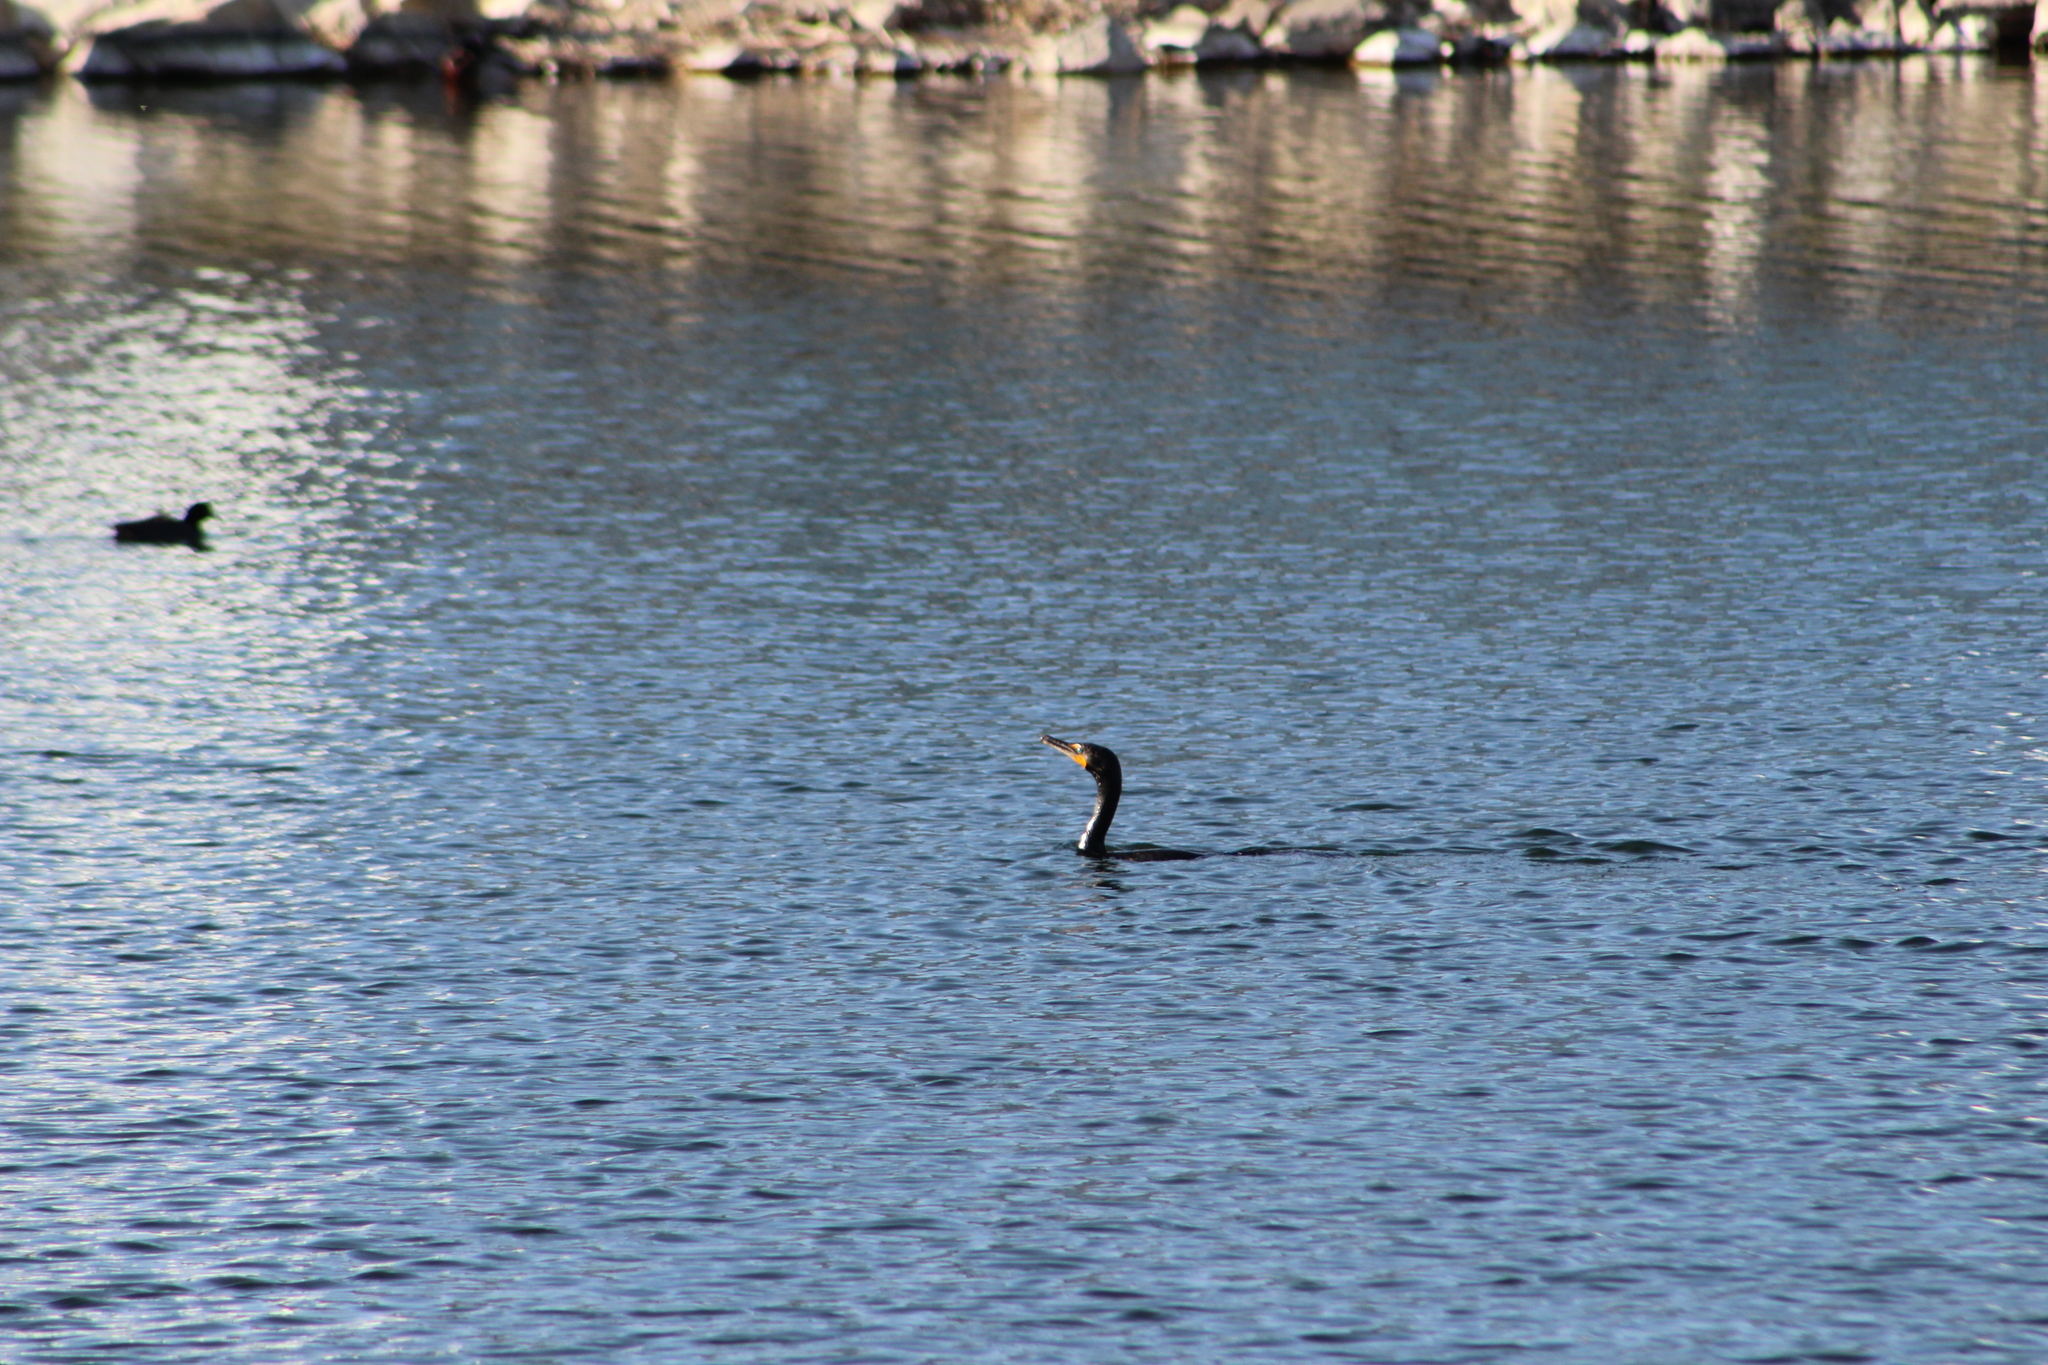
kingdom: Animalia
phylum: Chordata
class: Aves
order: Suliformes
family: Phalacrocoracidae
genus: Phalacrocorax
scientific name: Phalacrocorax auritus
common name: Double-crested cormorant
